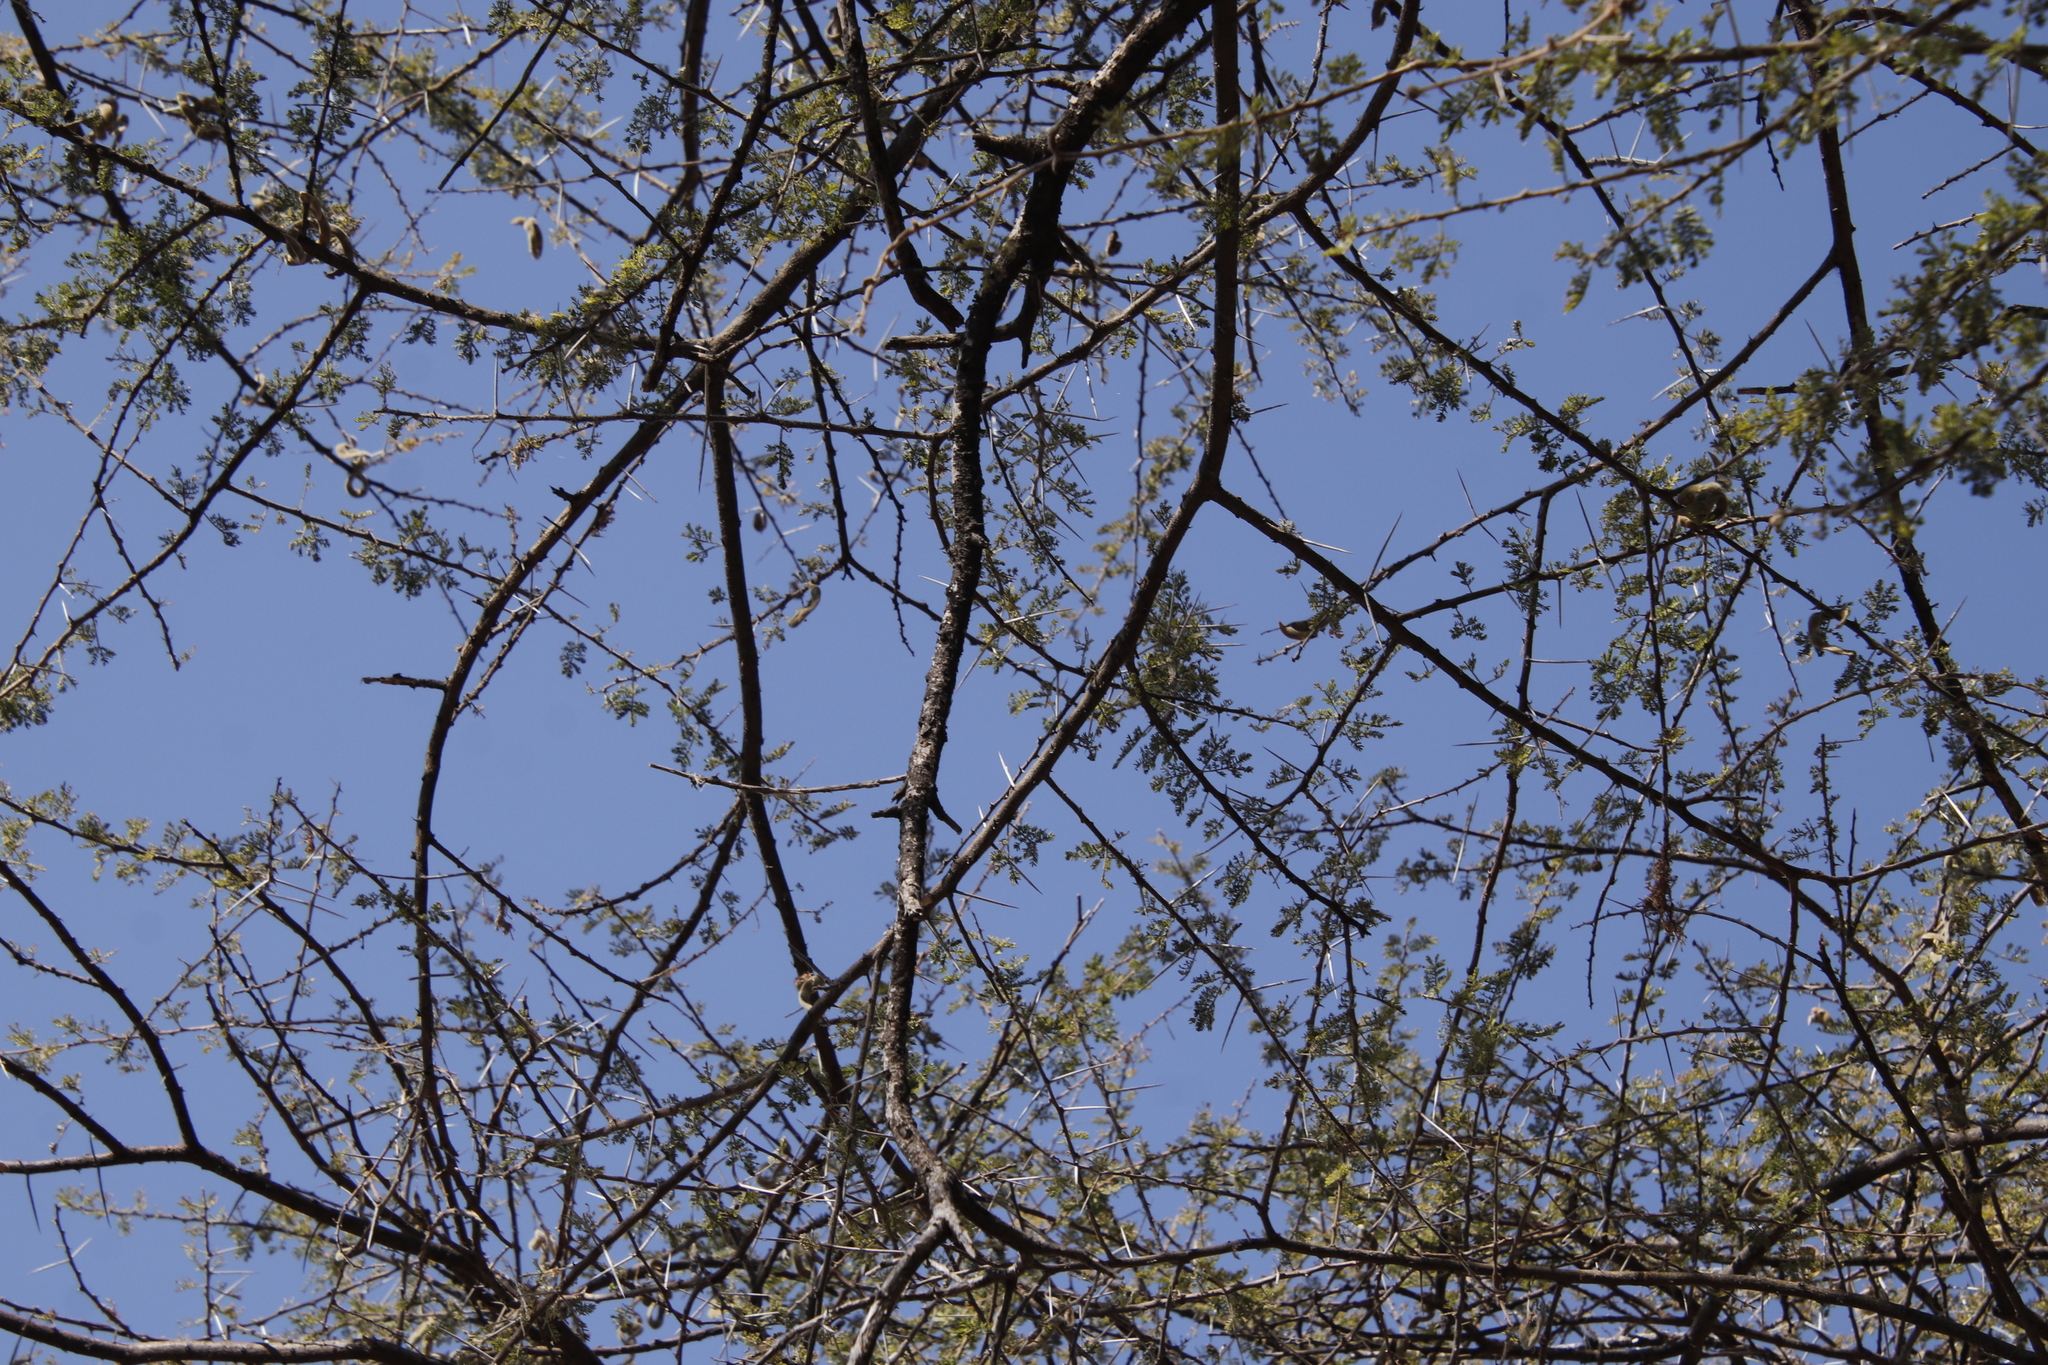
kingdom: Plantae
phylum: Tracheophyta
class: Magnoliopsida
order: Fabales
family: Fabaceae
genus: Vachellia
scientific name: Vachellia tortilis
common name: Umbrella thorn acacia
